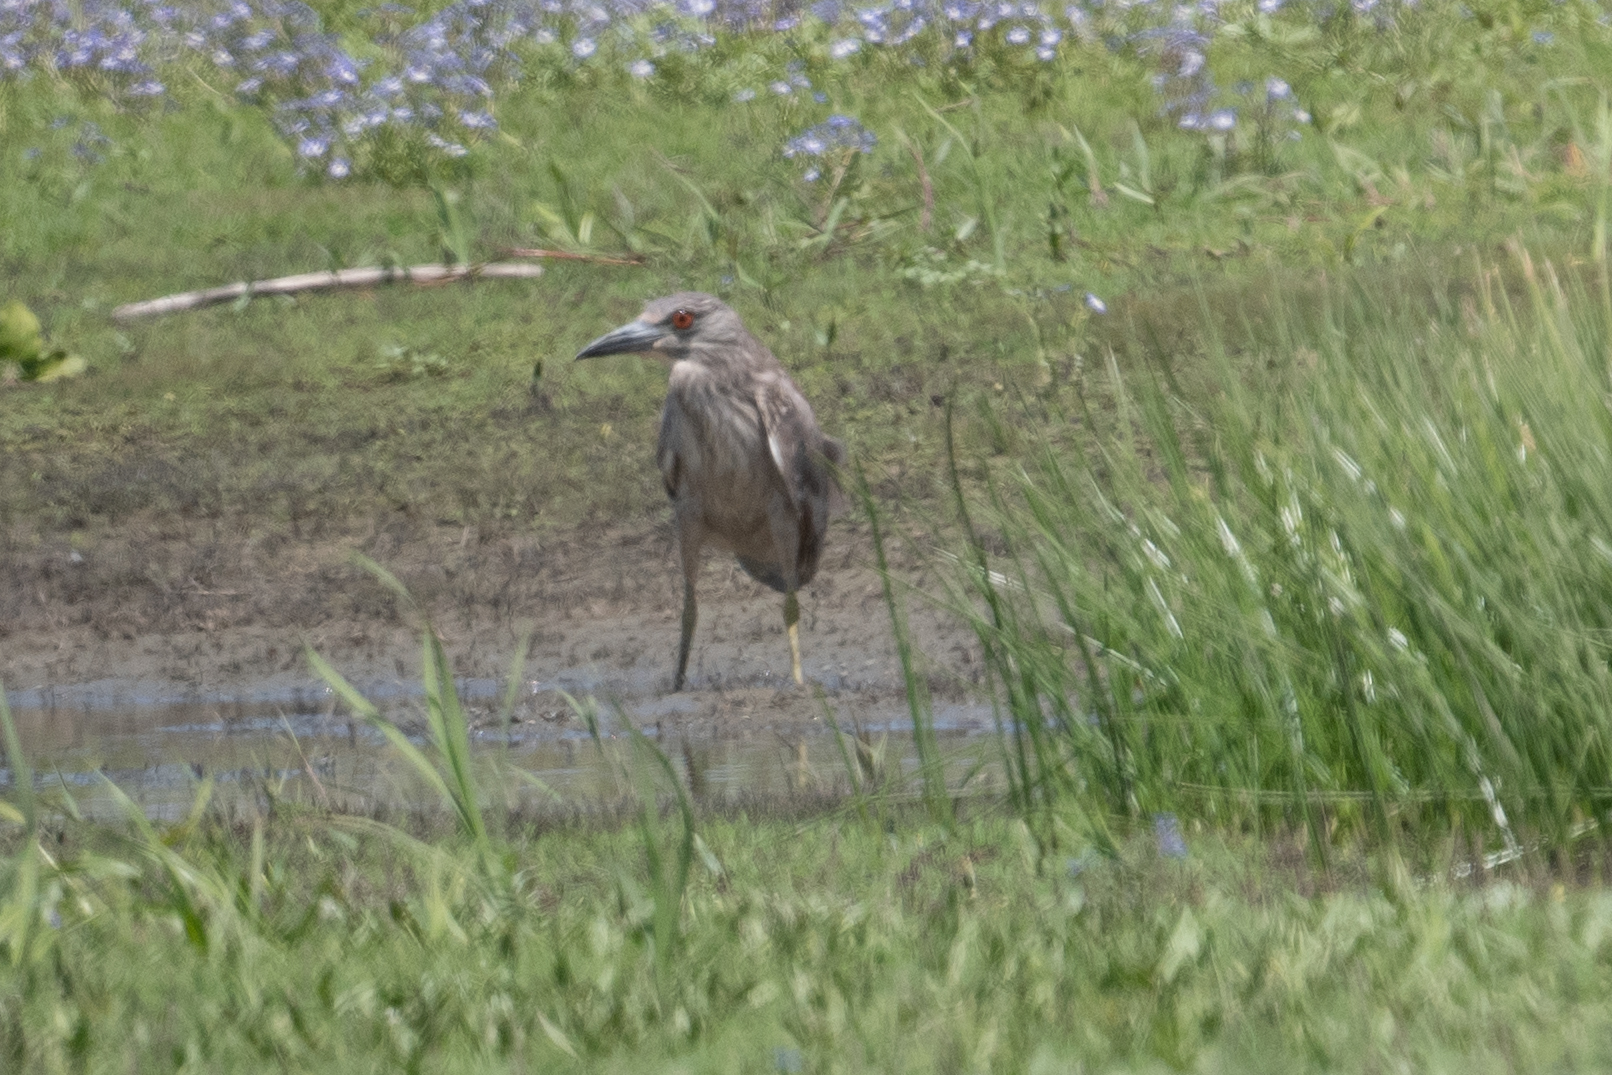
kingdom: Animalia
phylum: Chordata
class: Aves
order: Pelecaniformes
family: Ardeidae
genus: Nycticorax
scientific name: Nycticorax nycticorax
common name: Black-crowned night heron
